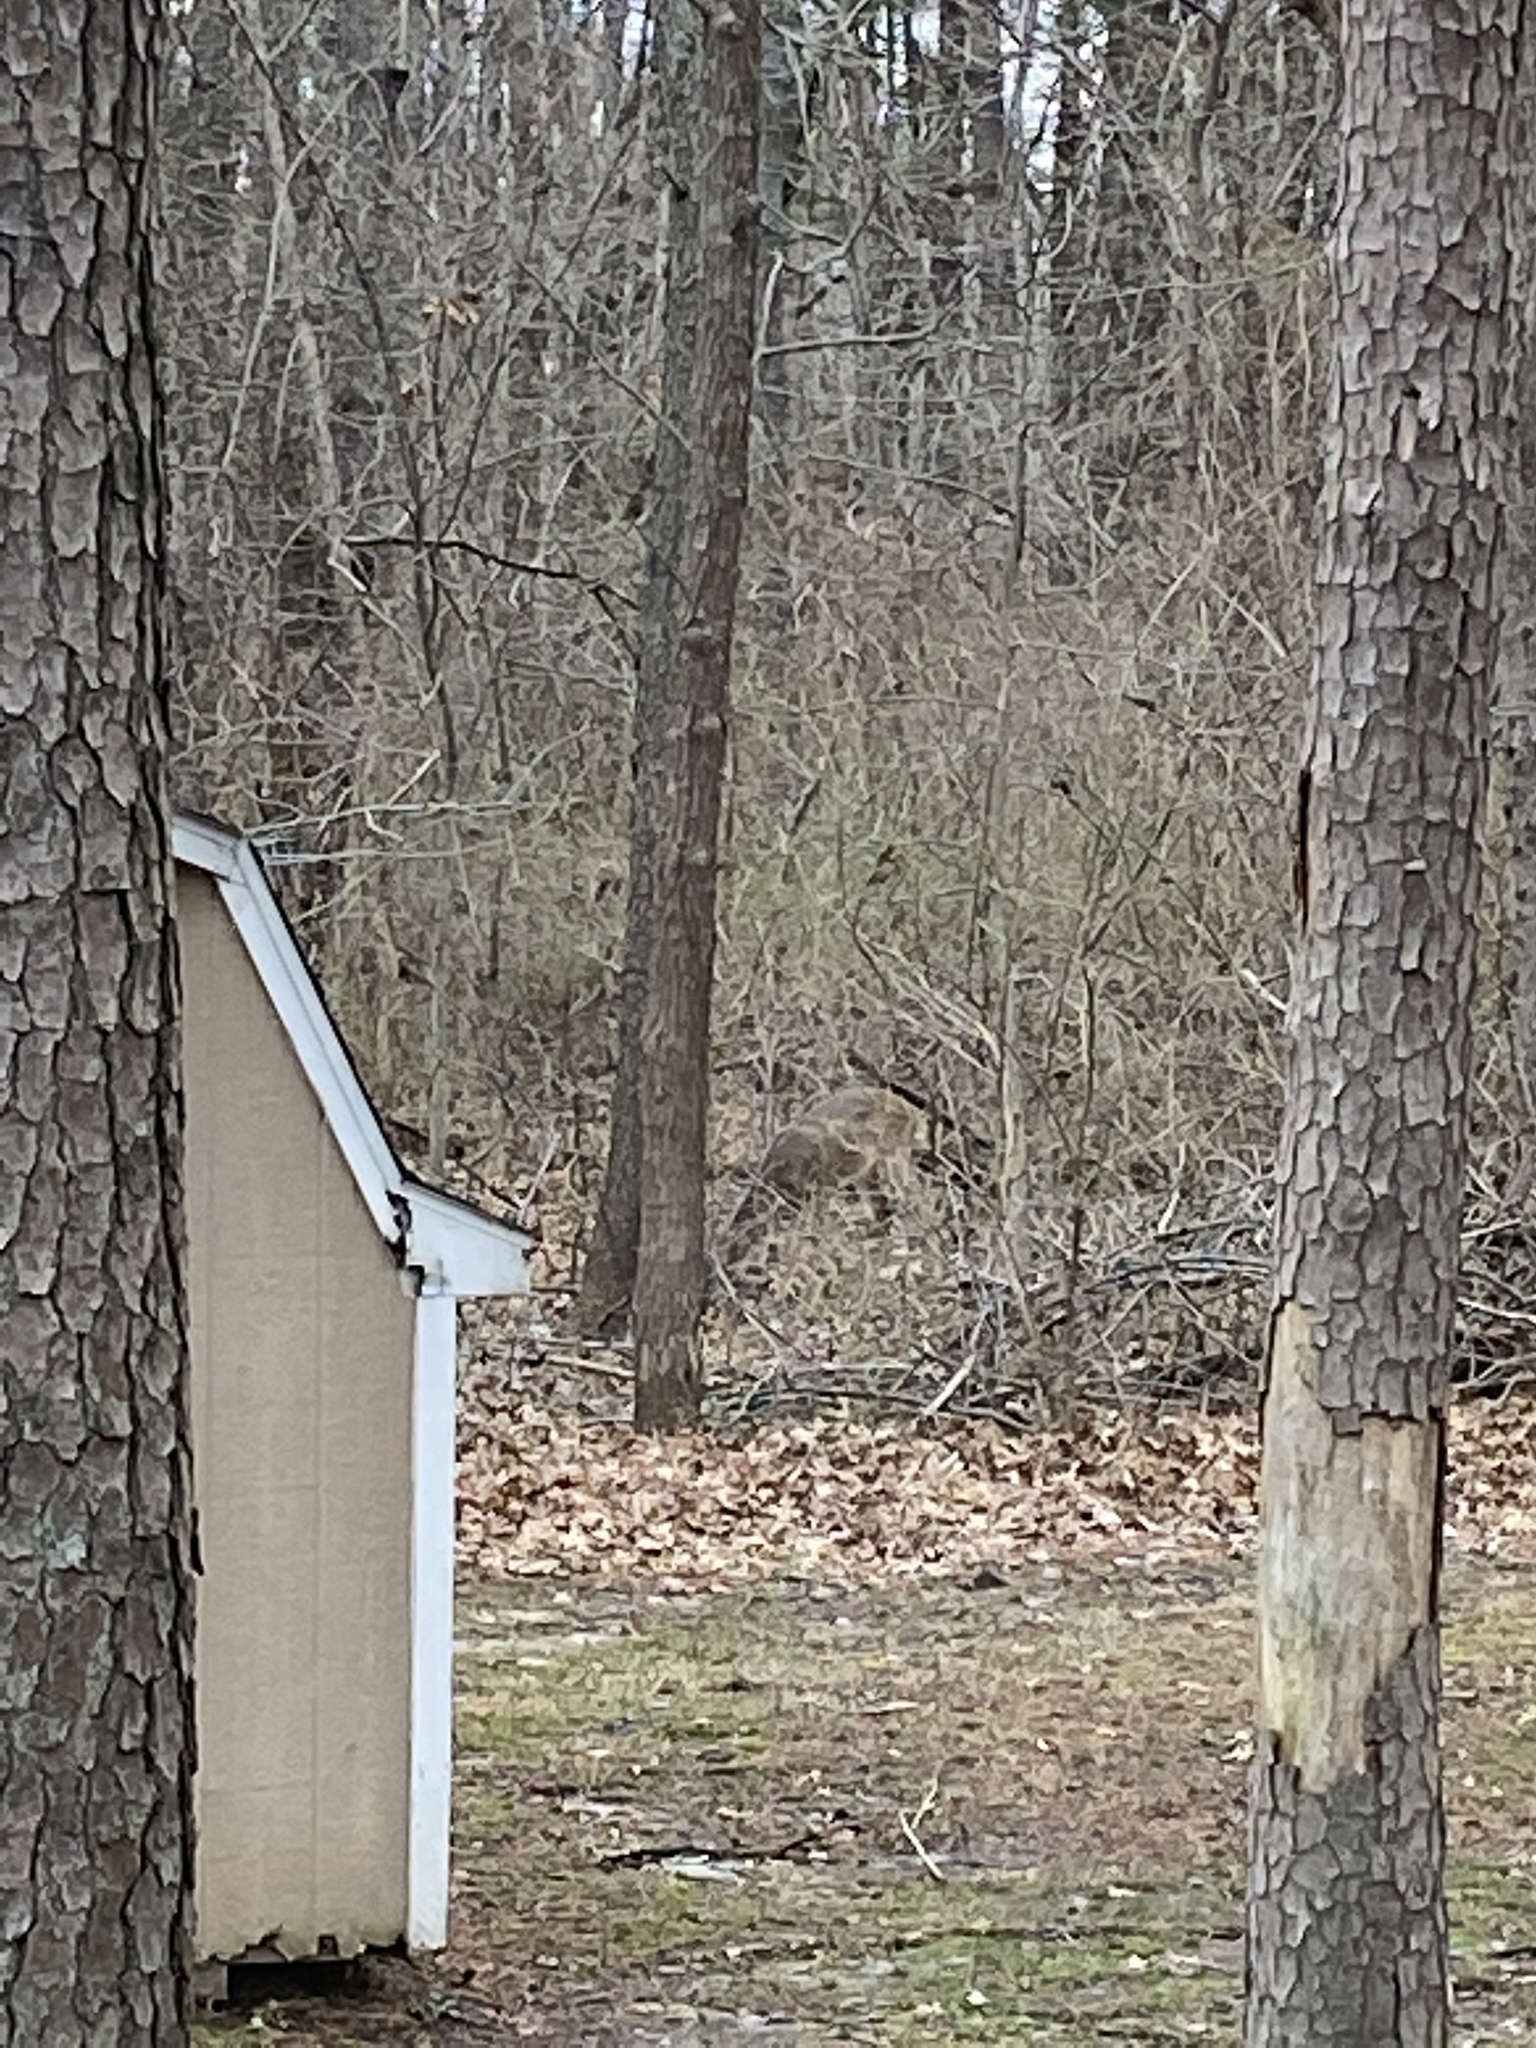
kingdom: Animalia
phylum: Chordata
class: Mammalia
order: Artiodactyla
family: Cervidae
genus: Odocoileus
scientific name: Odocoileus virginianus
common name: White-tailed deer
